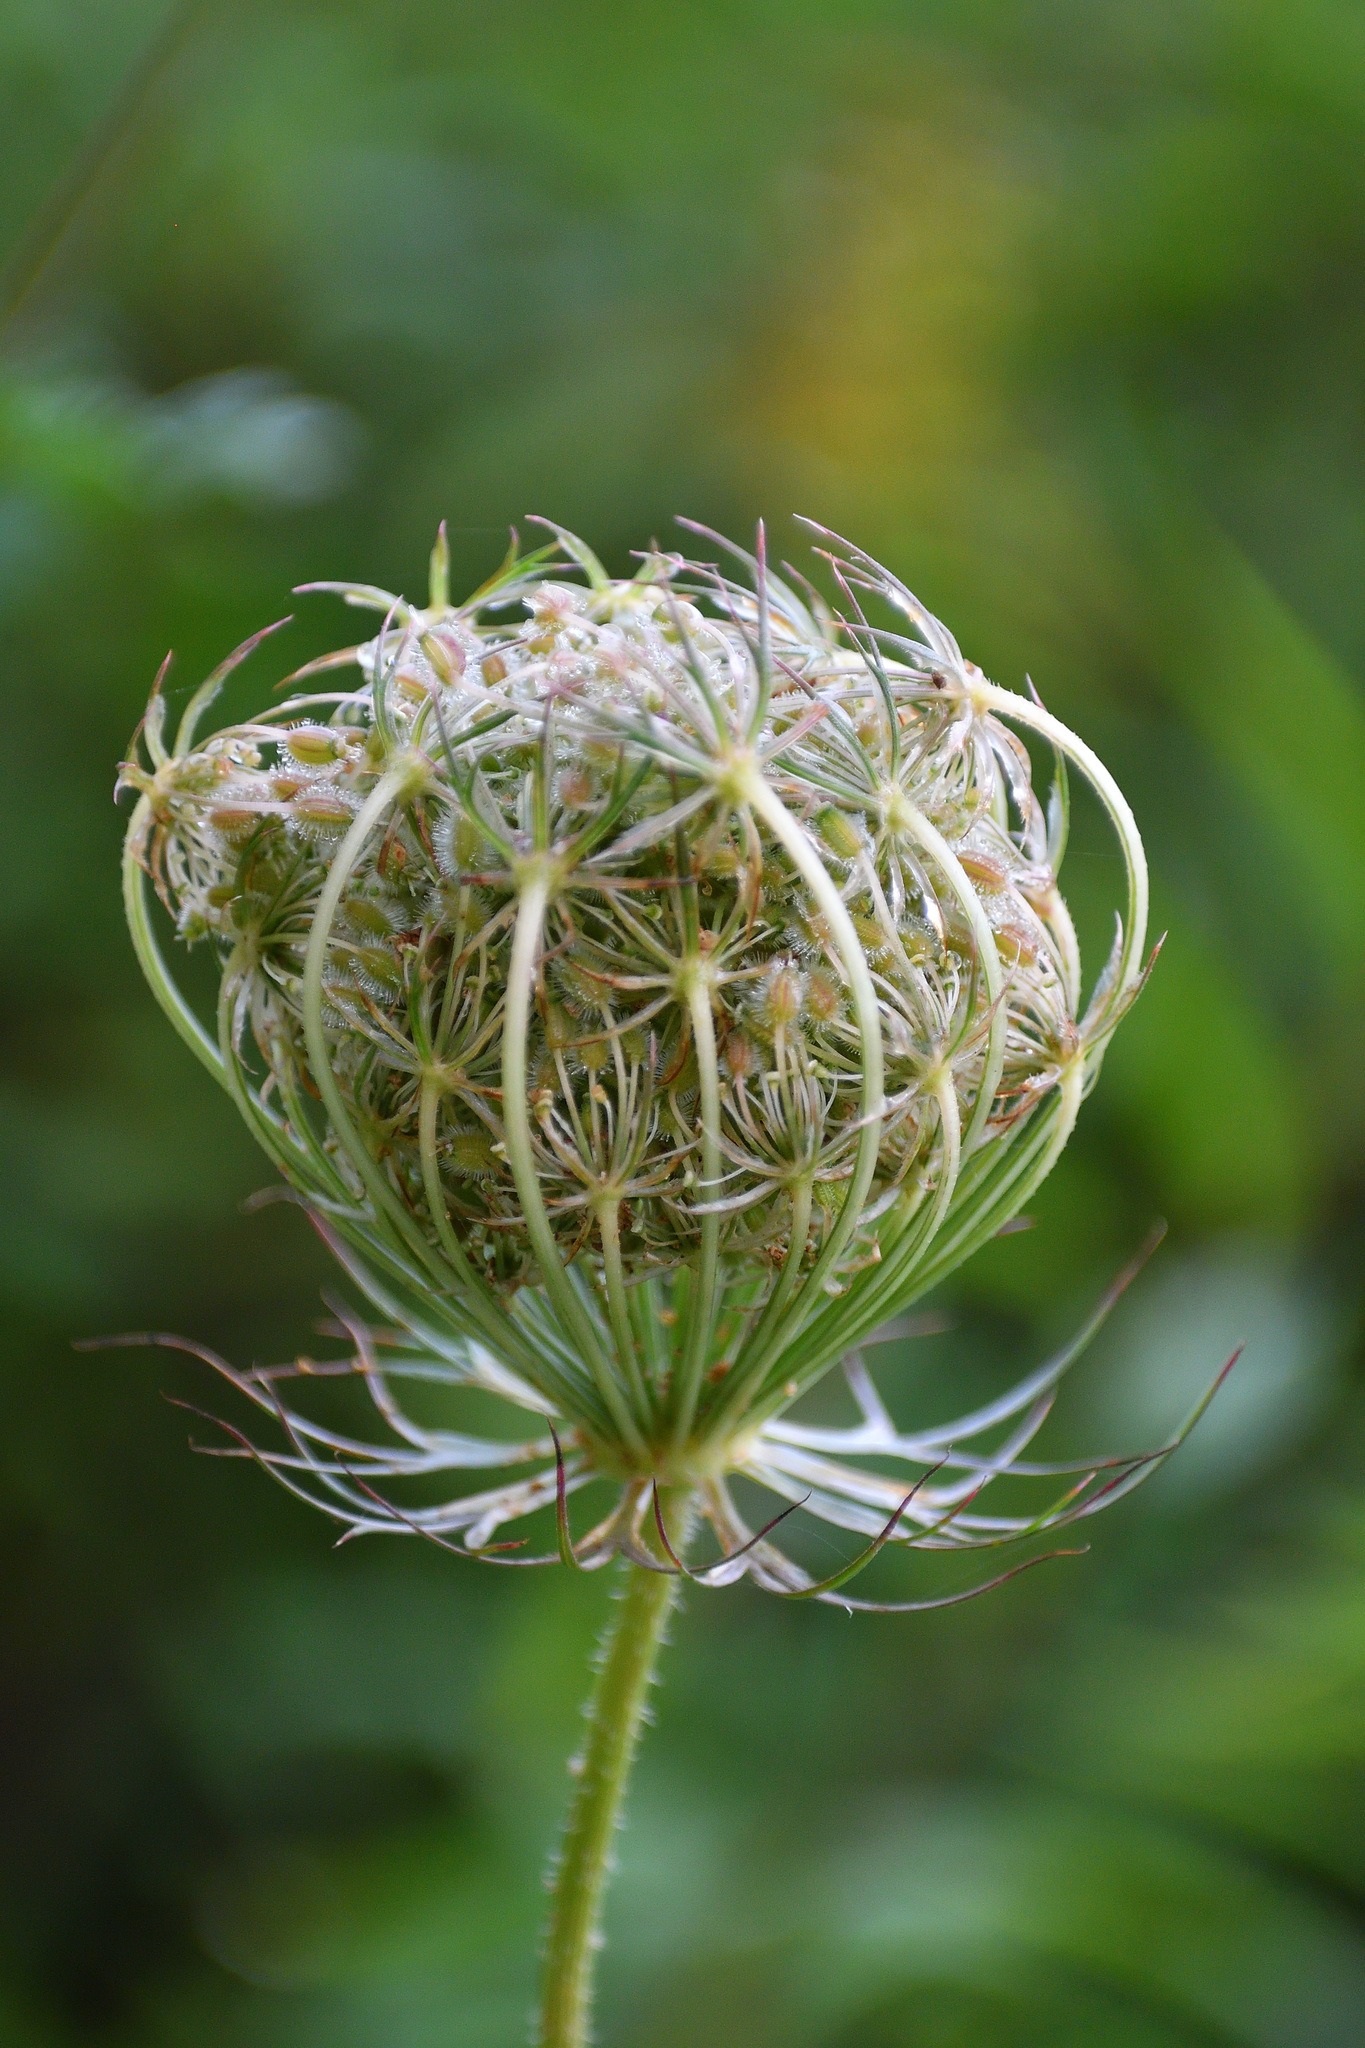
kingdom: Plantae
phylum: Tracheophyta
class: Magnoliopsida
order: Apiales
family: Apiaceae
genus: Daucus
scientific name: Daucus carota
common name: Wild carrot
